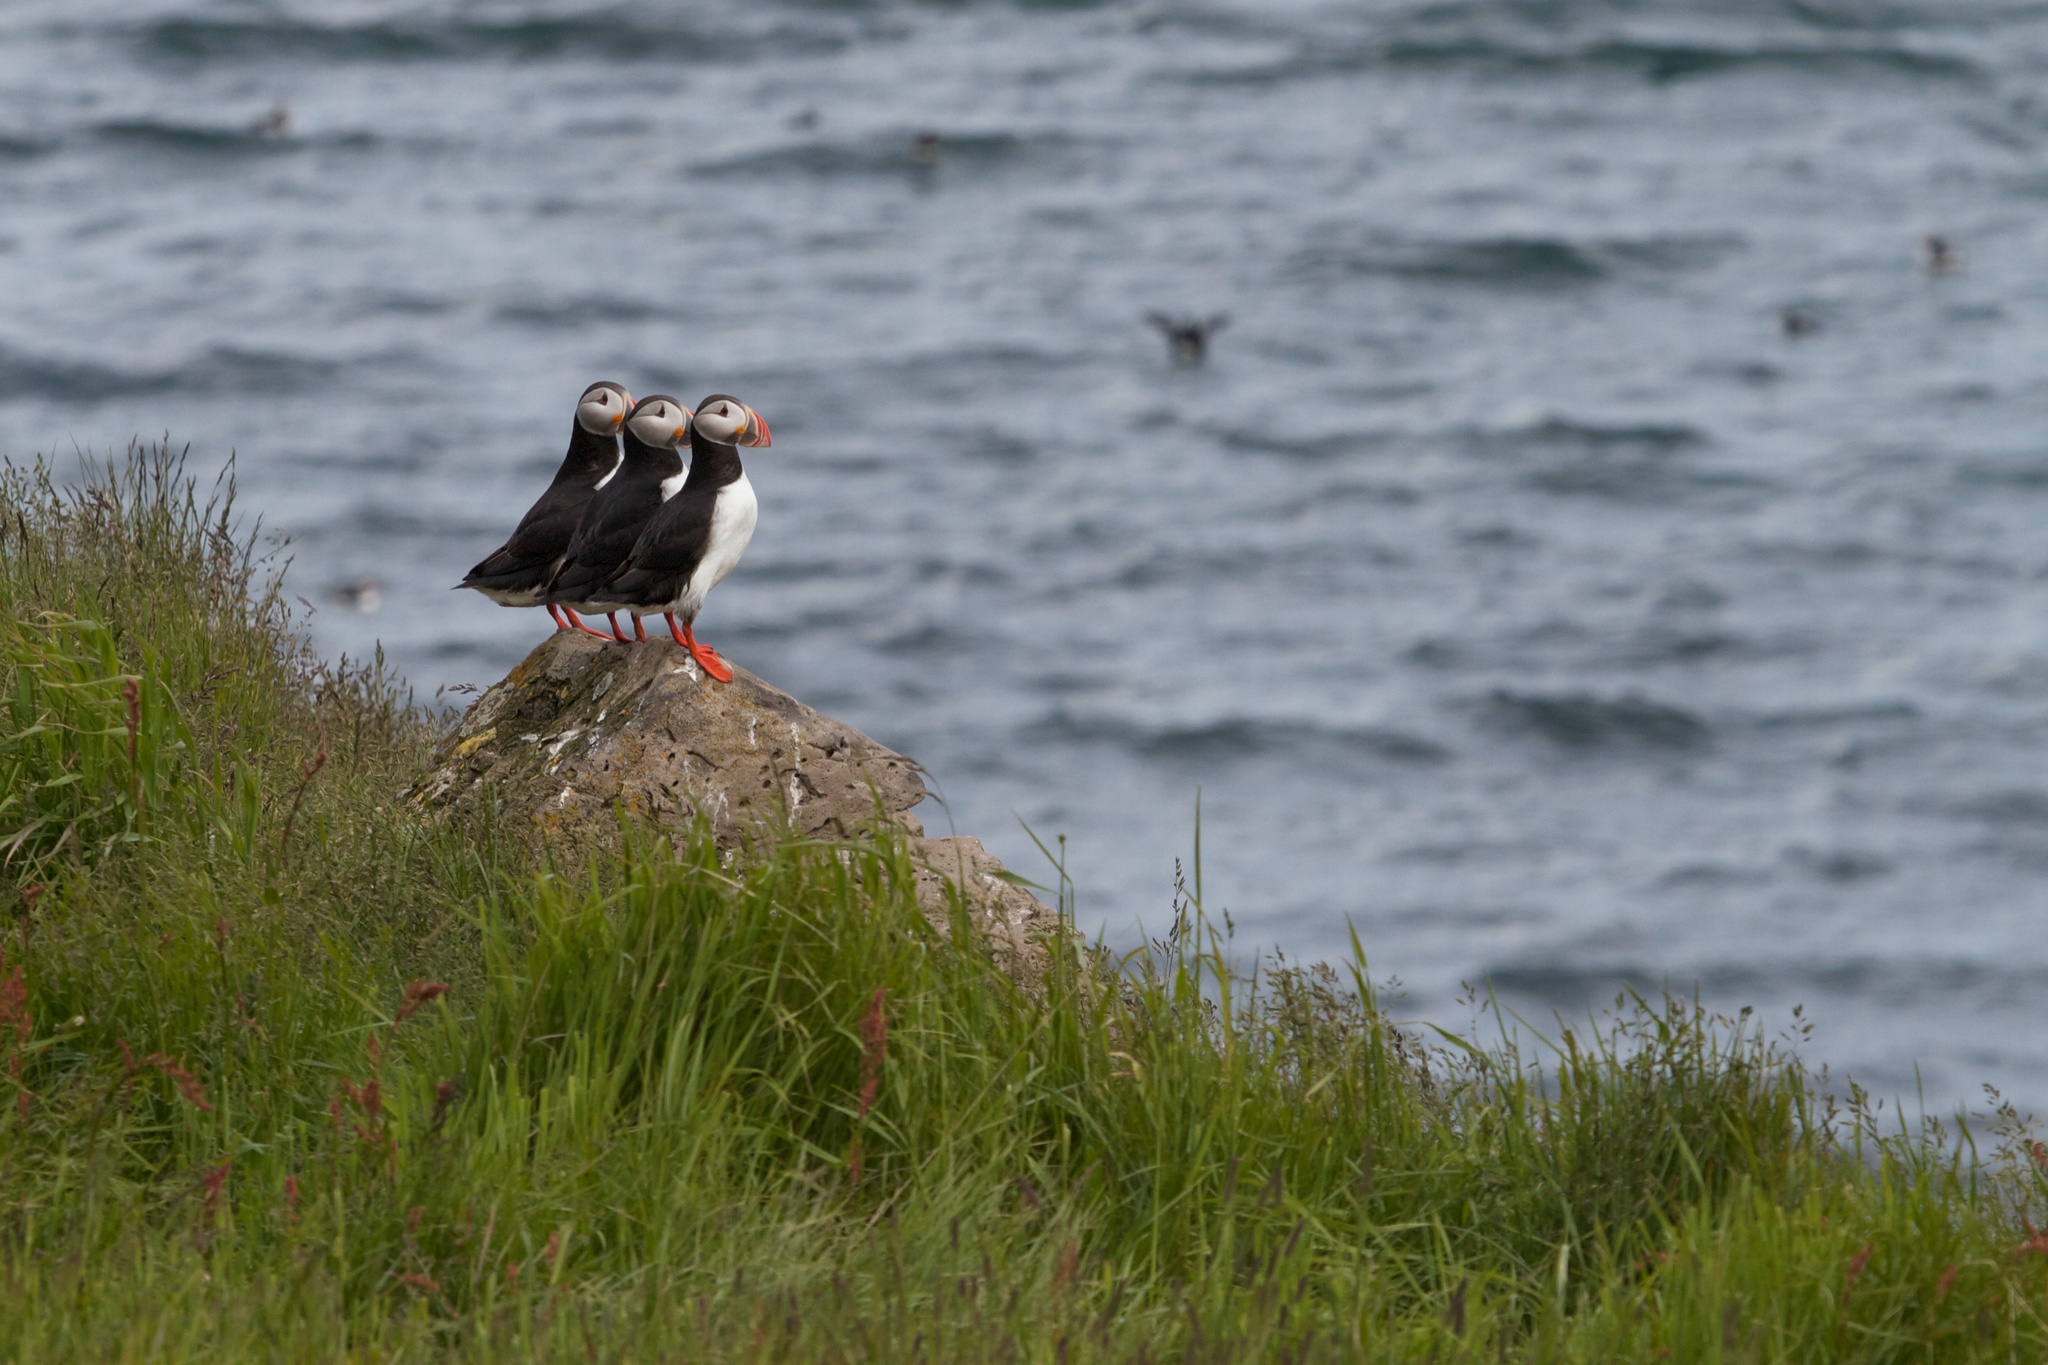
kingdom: Animalia
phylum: Chordata
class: Aves
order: Charadriiformes
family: Alcidae
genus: Fratercula
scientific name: Fratercula arctica
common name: Atlantic puffin
